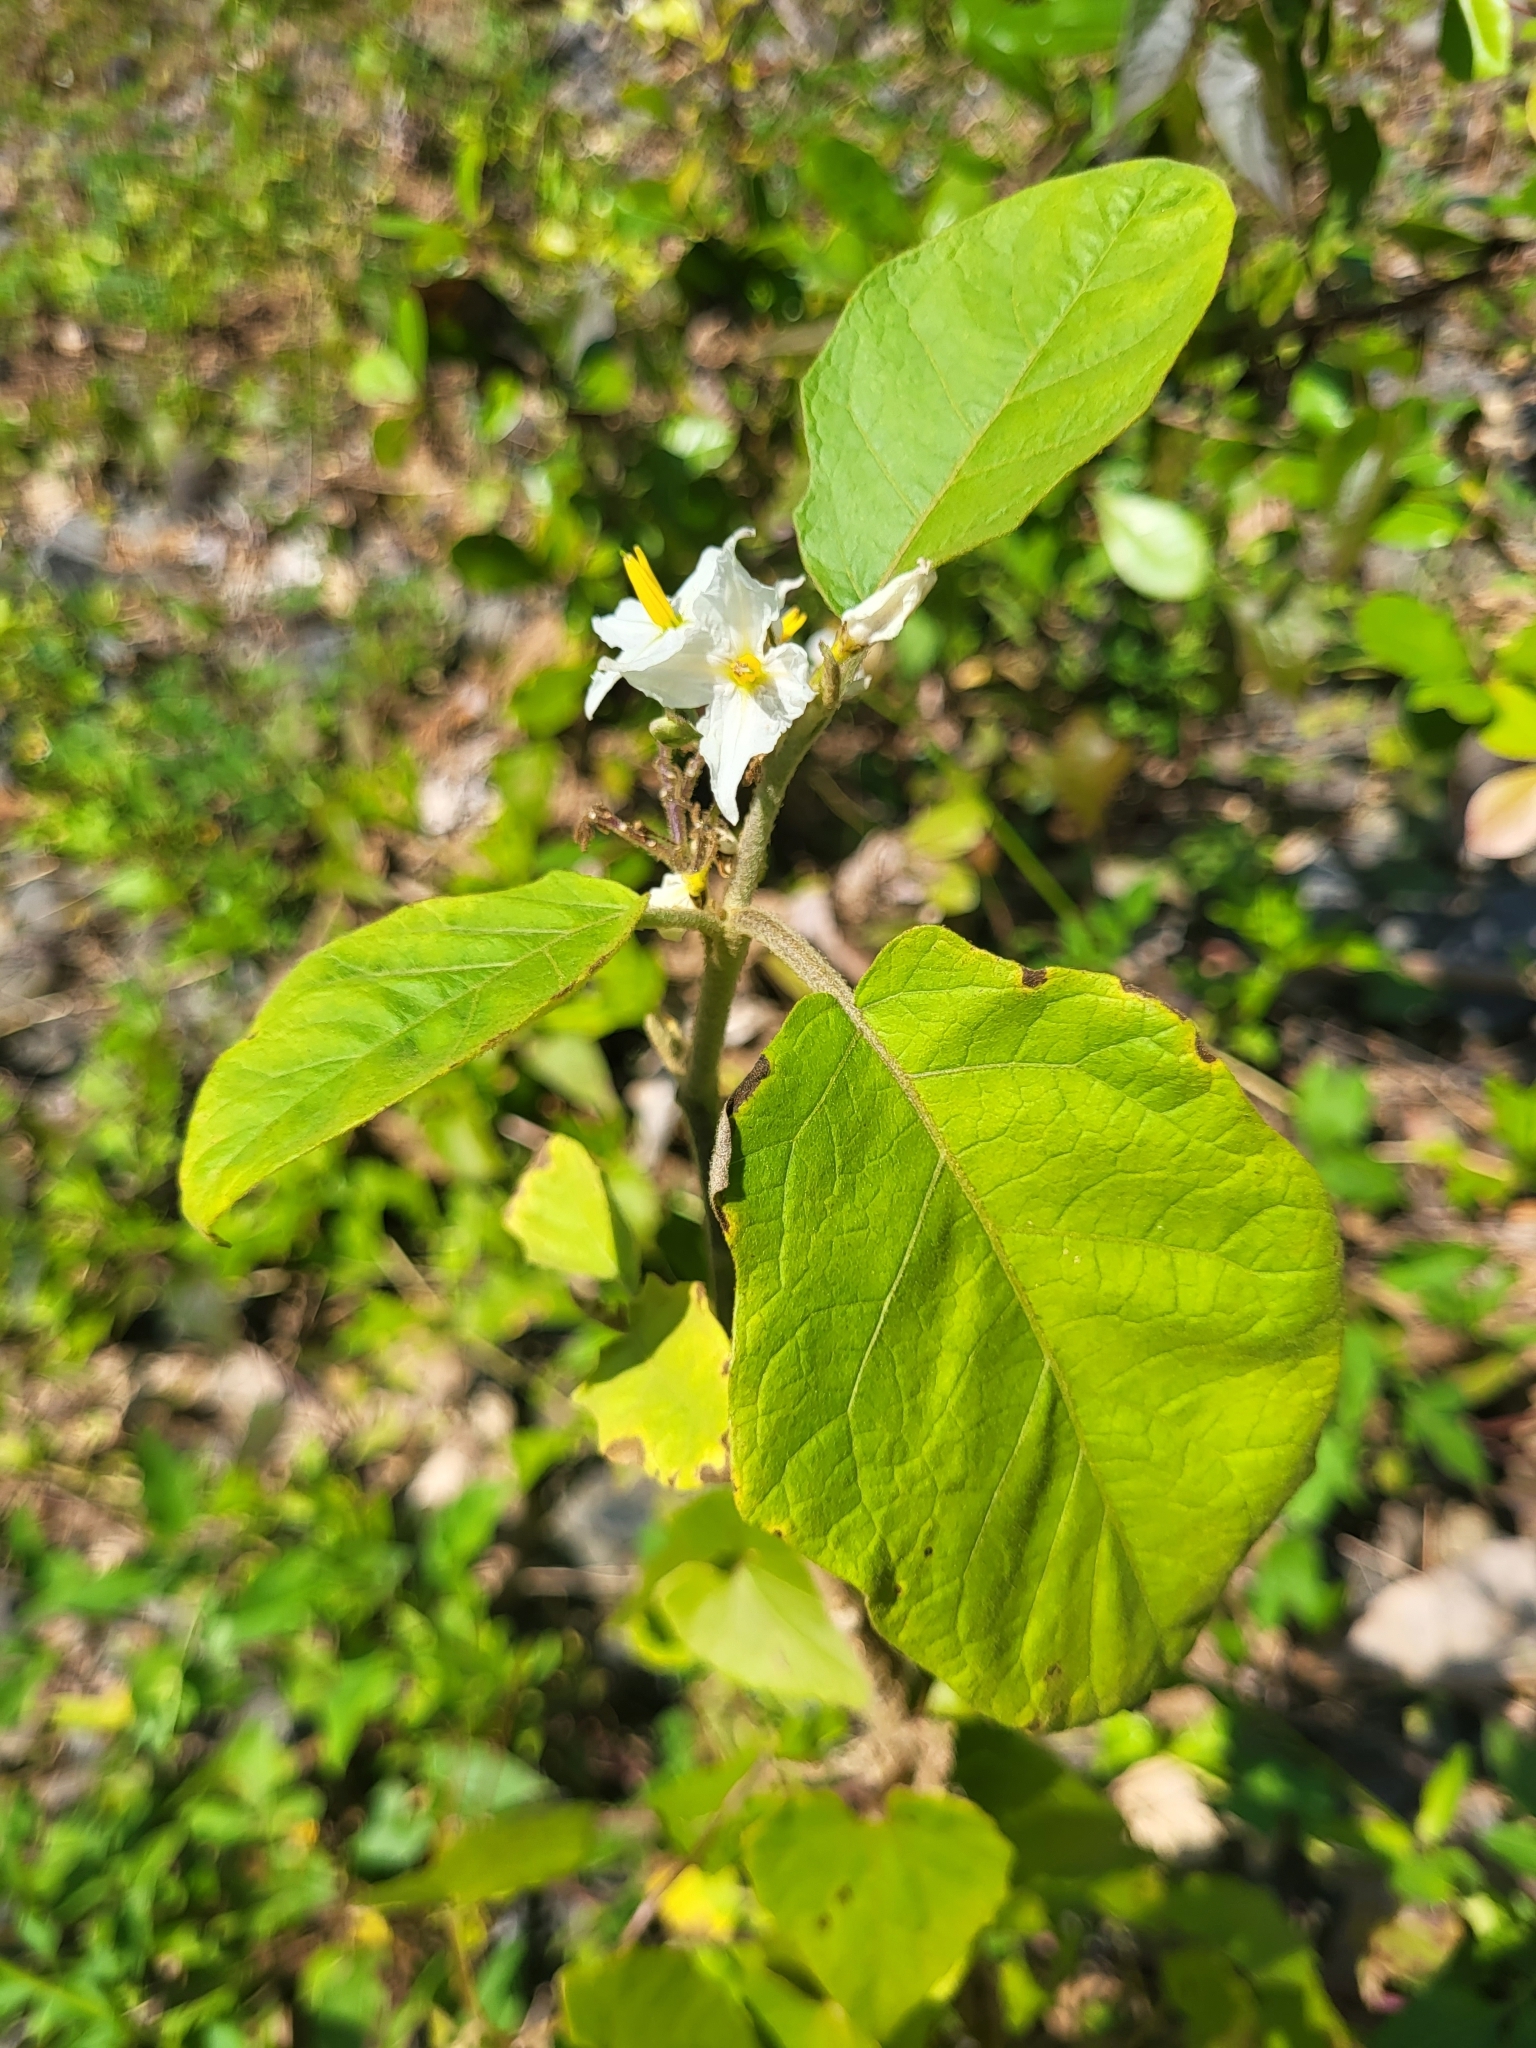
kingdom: Plantae
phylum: Tracheophyta
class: Magnoliopsida
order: Solanales
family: Solanaceae
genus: Solanum
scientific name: Solanum torvum
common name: Turkey berry
